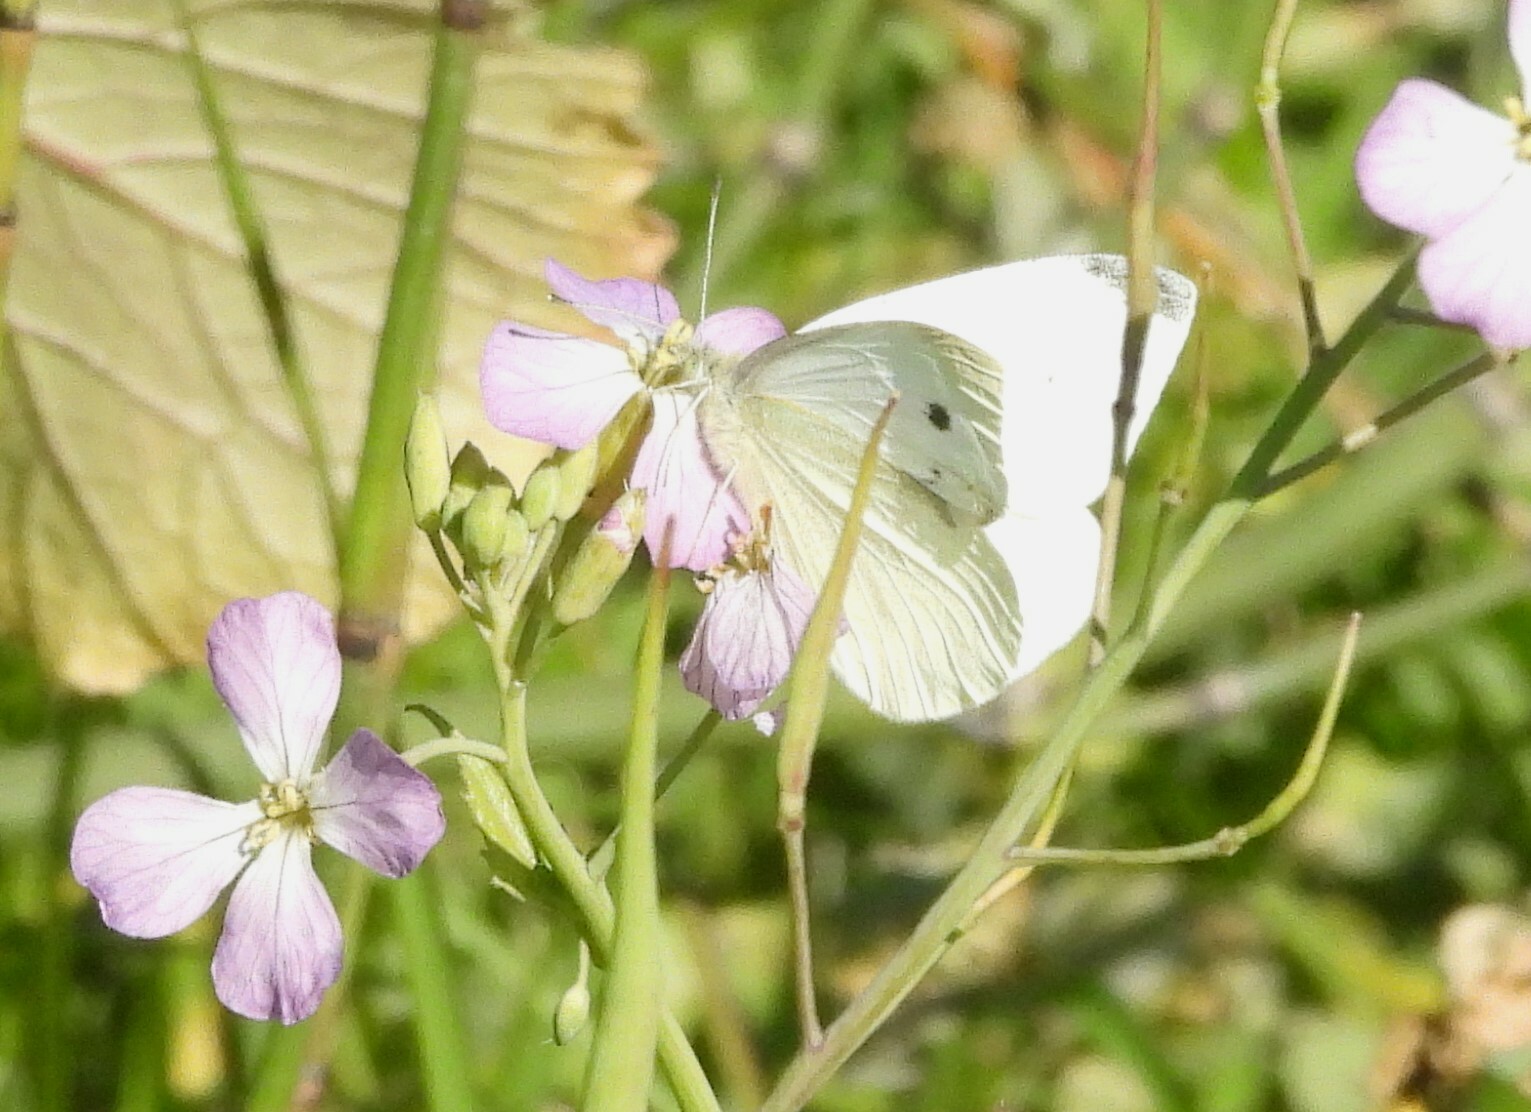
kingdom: Animalia
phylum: Arthropoda
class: Insecta
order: Lepidoptera
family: Pieridae
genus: Pieris
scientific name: Pieris rapae
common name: Small white
